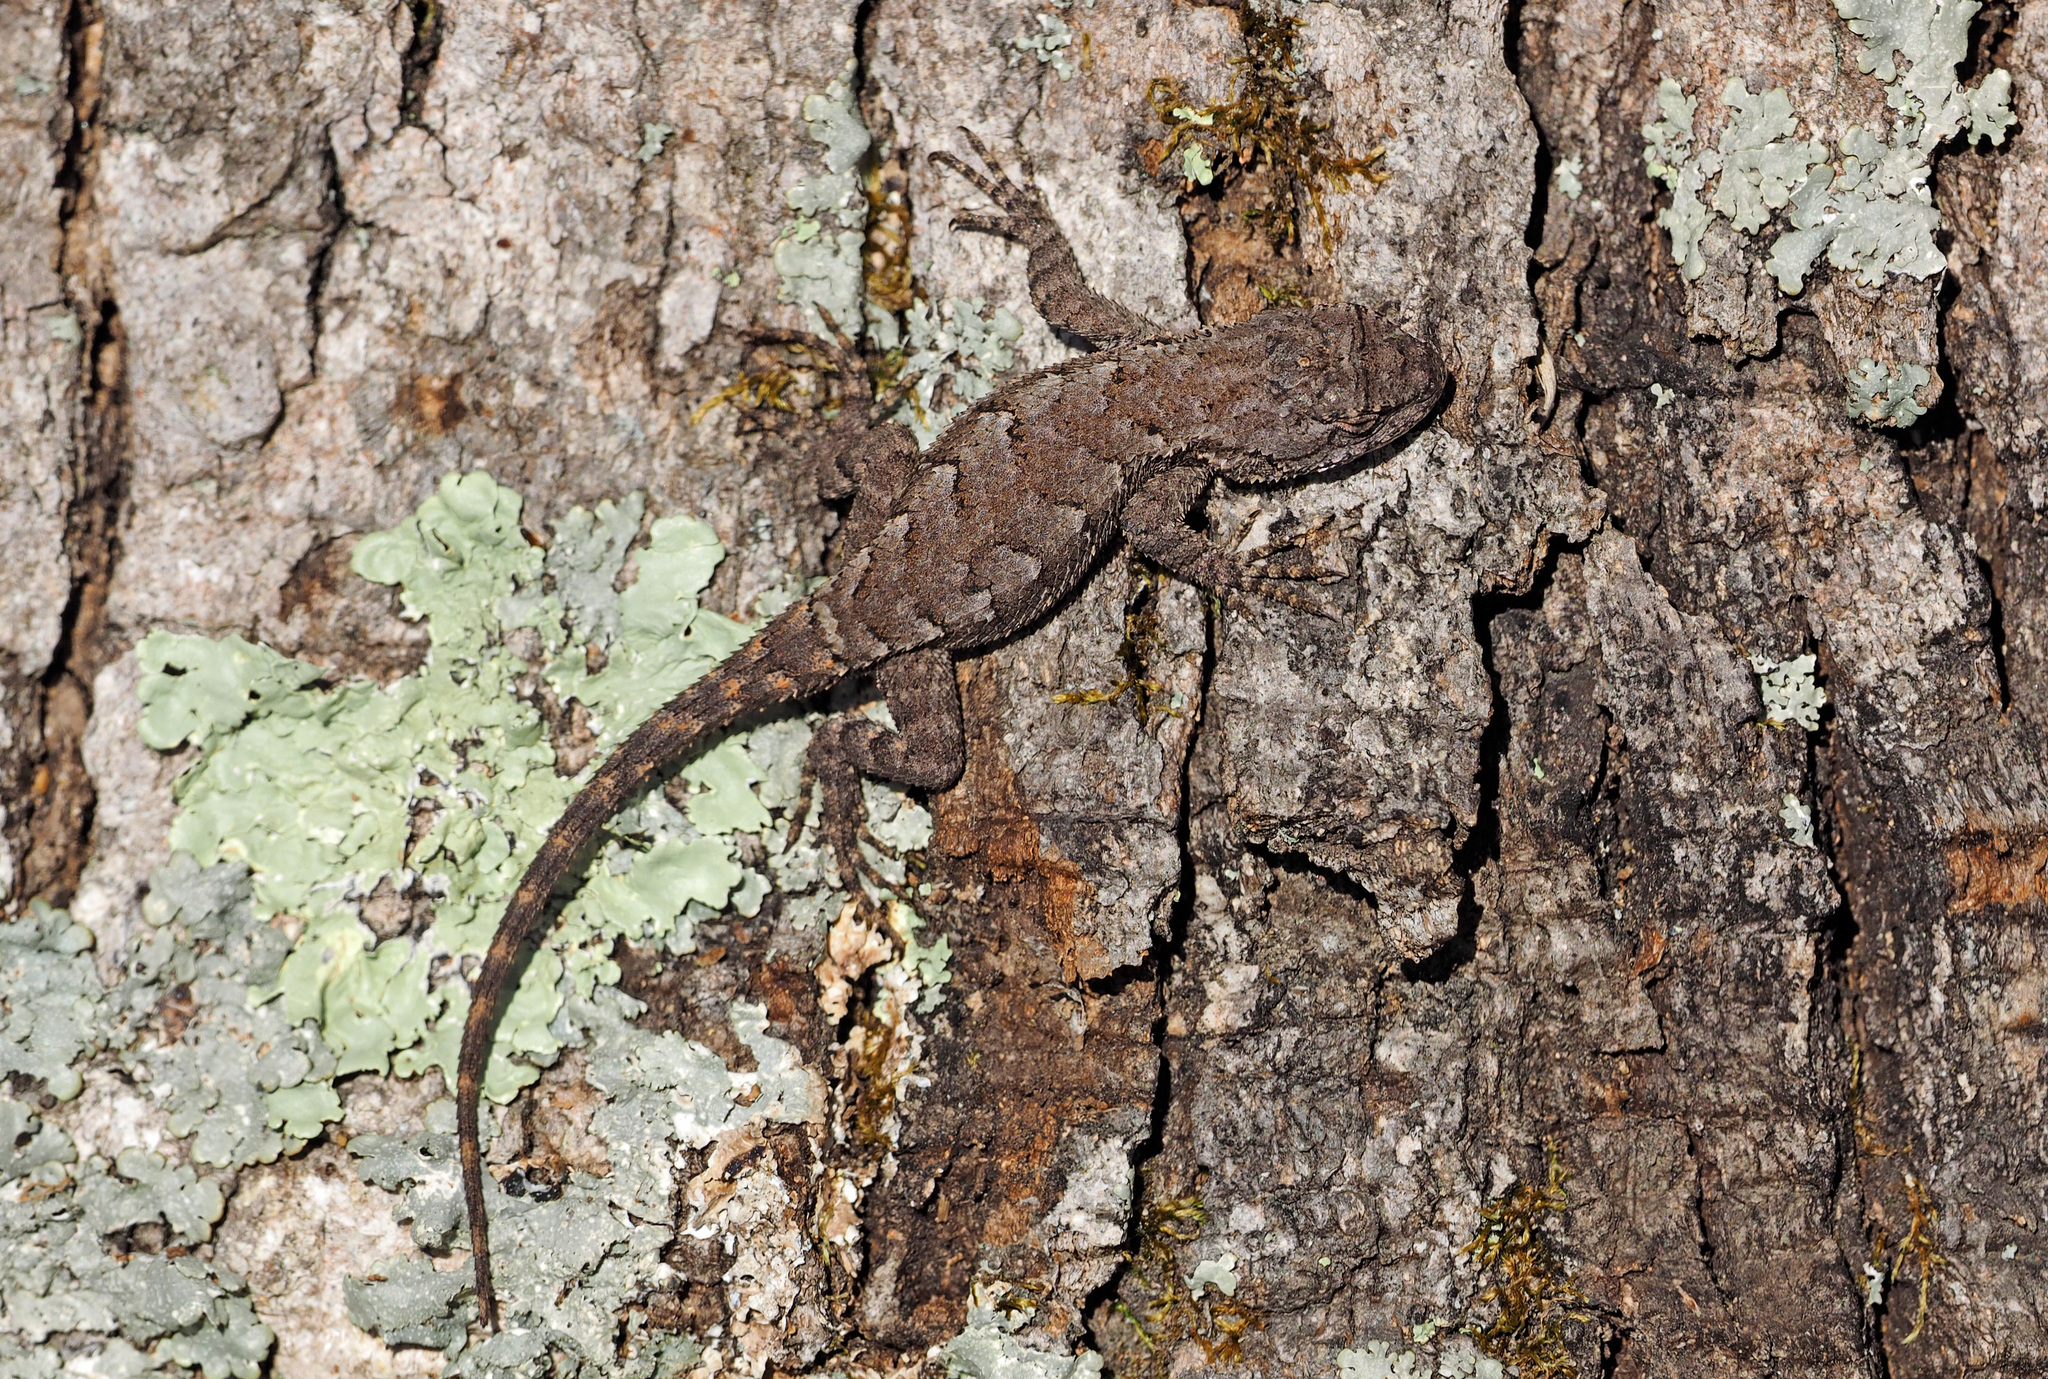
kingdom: Animalia
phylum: Chordata
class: Squamata
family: Phrynosomatidae
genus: Sceloporus
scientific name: Sceloporus undulatus
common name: Eastern fence lizard
